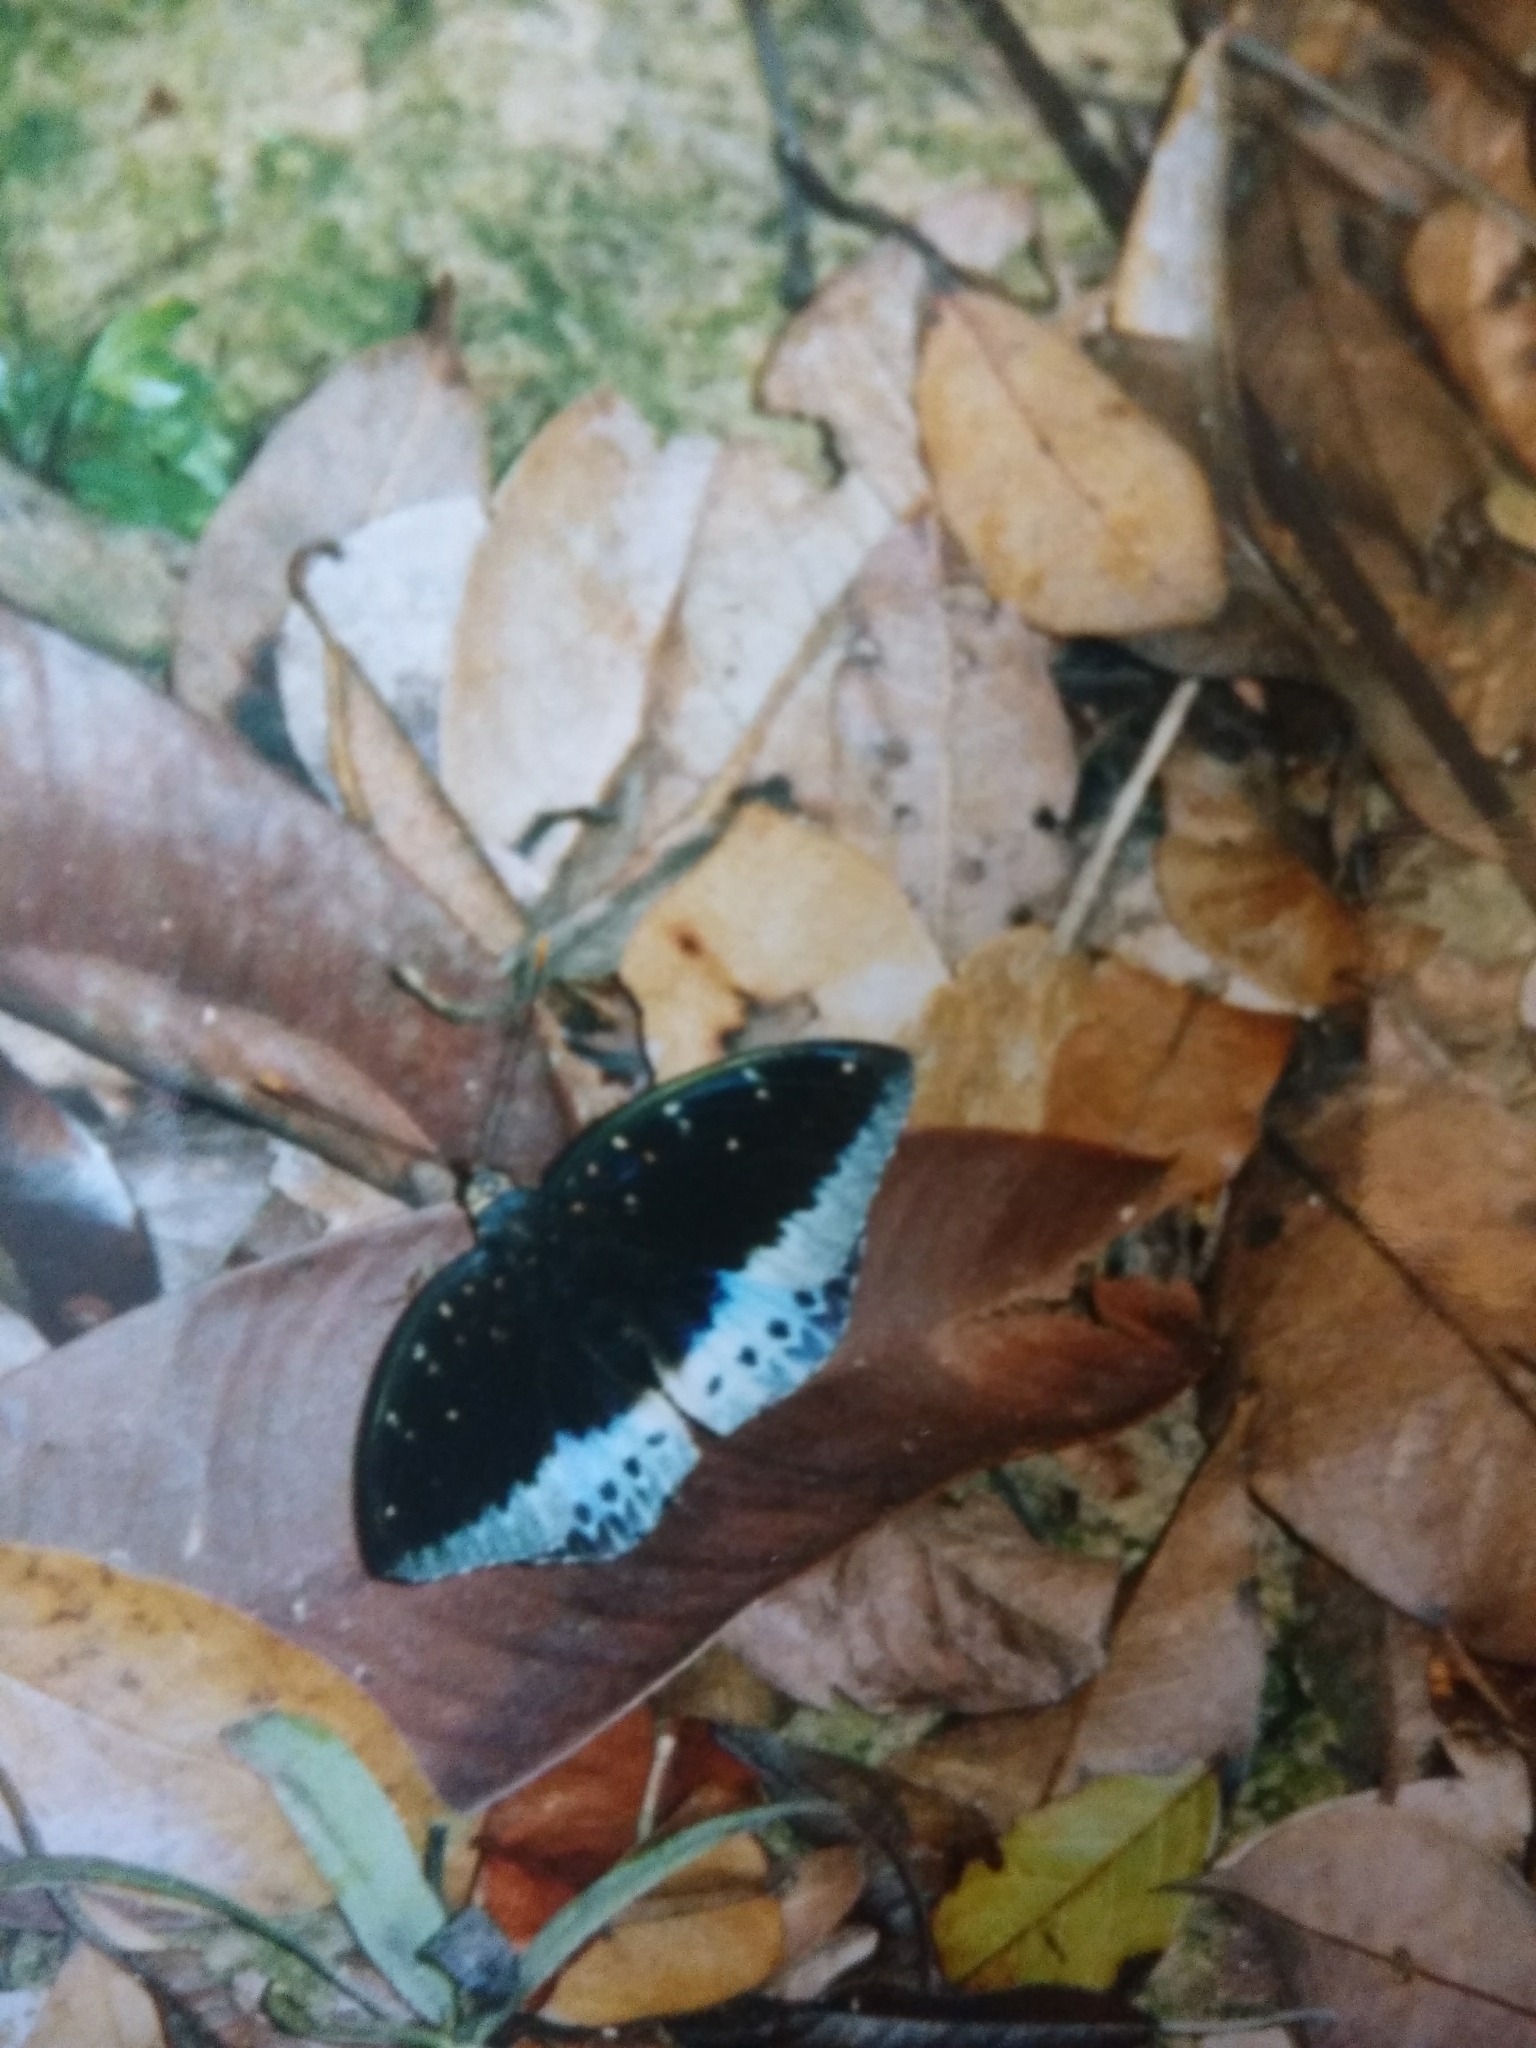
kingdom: Animalia
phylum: Arthropoda
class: Insecta
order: Lepidoptera
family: Nymphalidae
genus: Lexias
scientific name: Lexias pardalis
